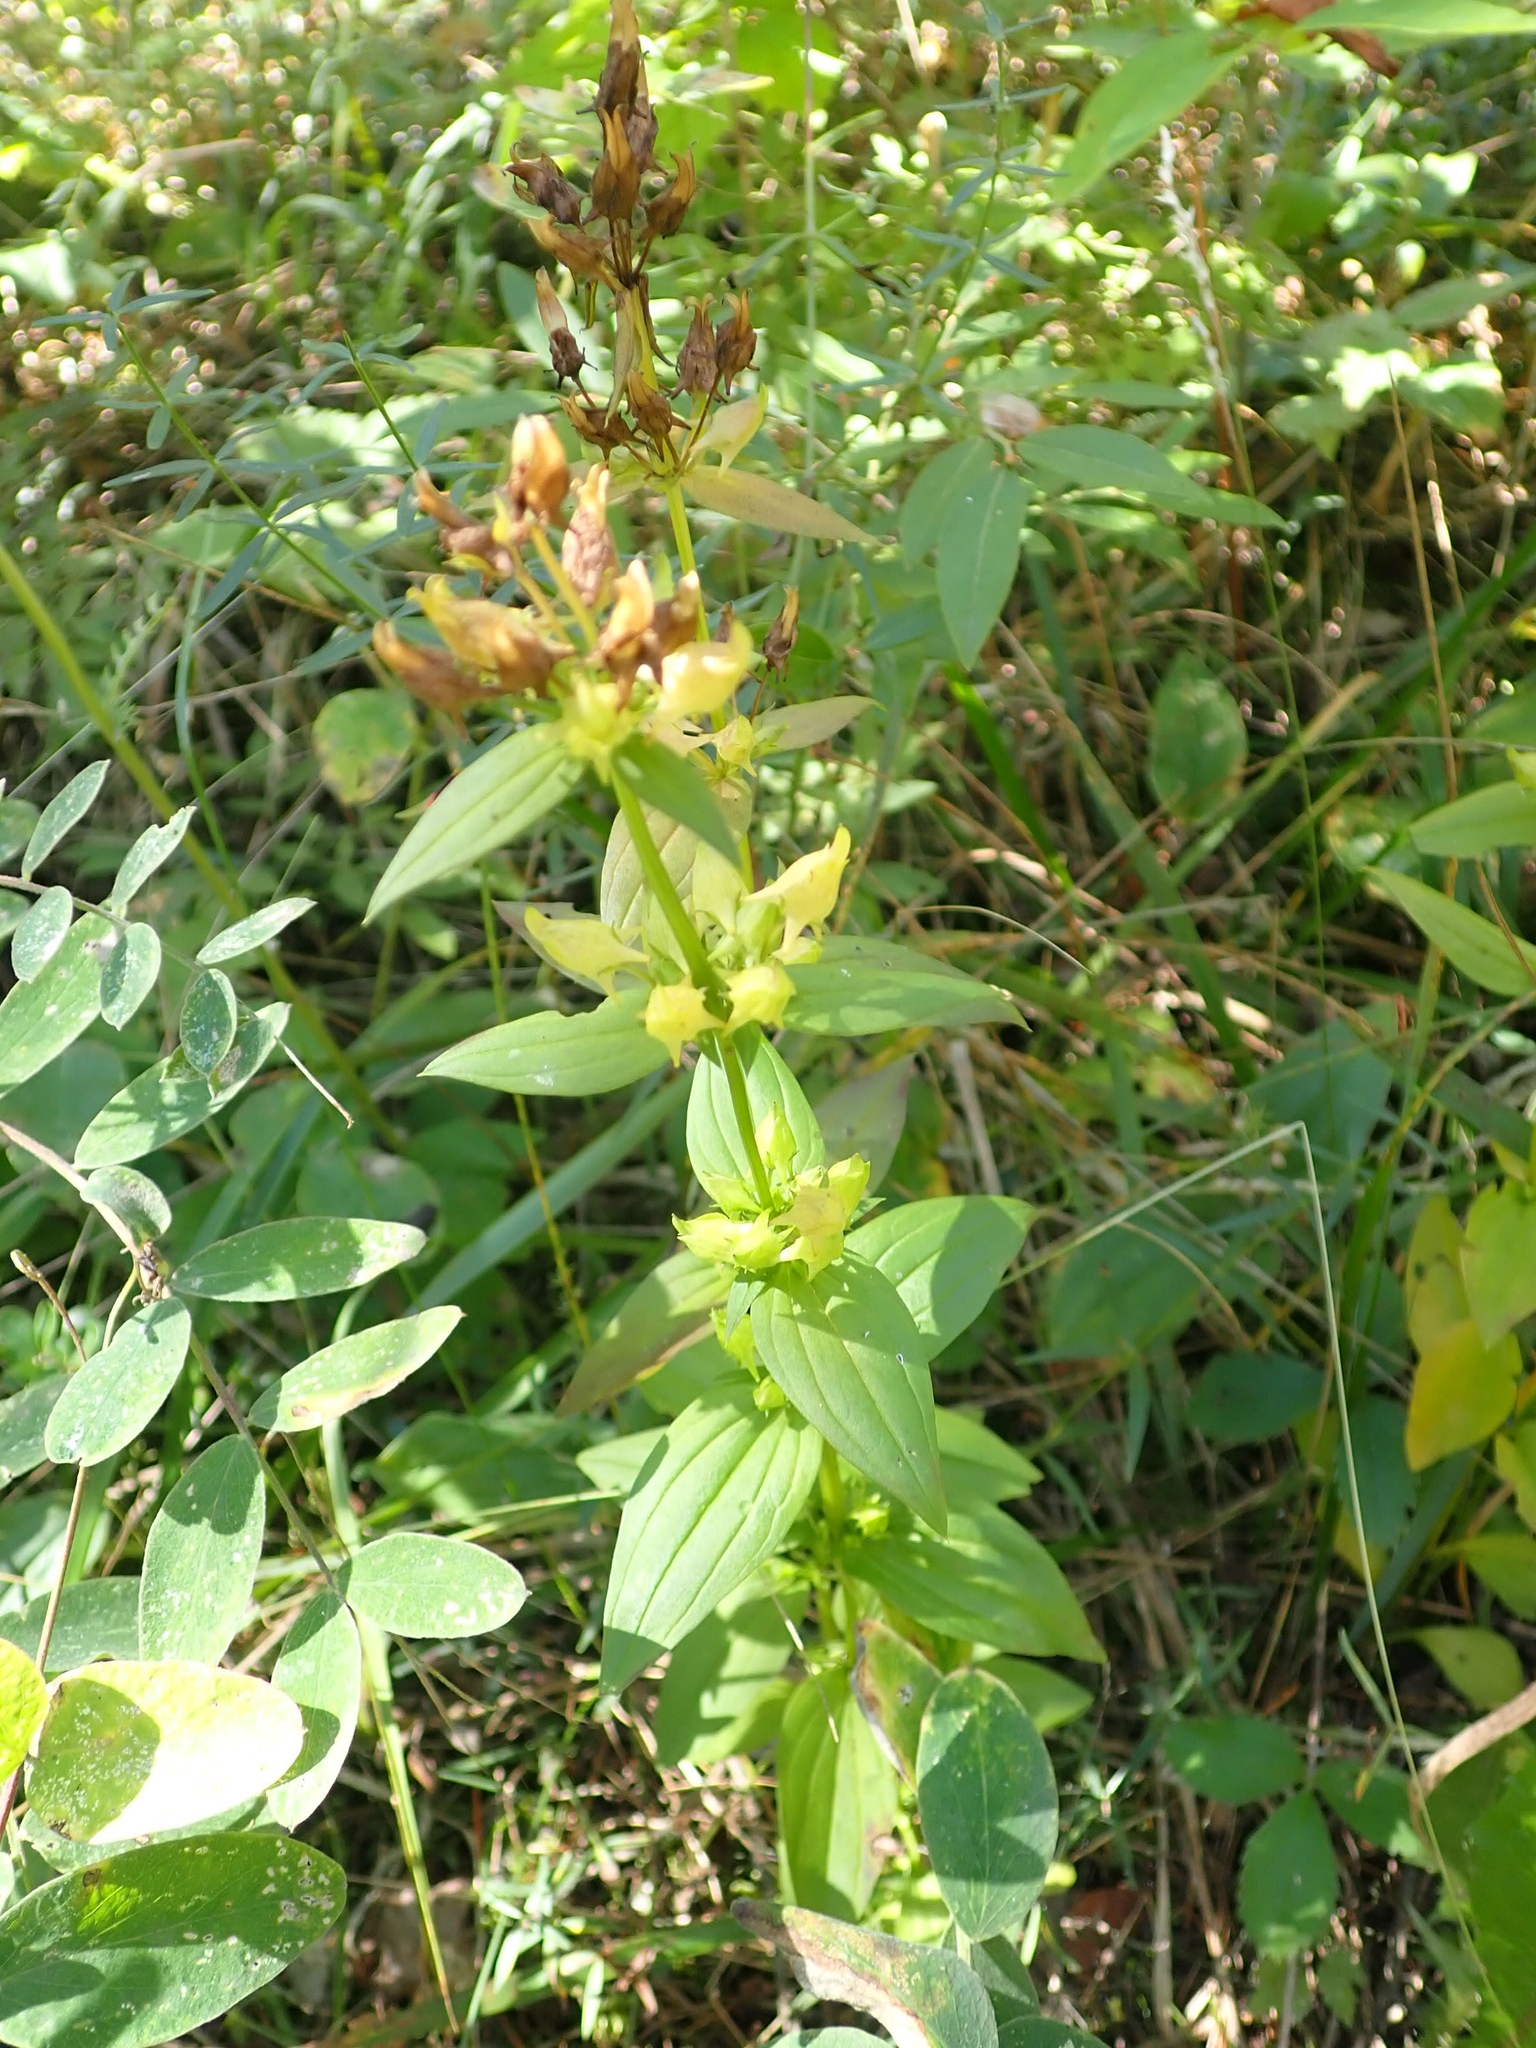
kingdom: Plantae
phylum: Tracheophyta
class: Magnoliopsida
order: Gentianales
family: Gentianaceae
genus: Halenia
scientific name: Halenia deflexa
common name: American spurred gentian
